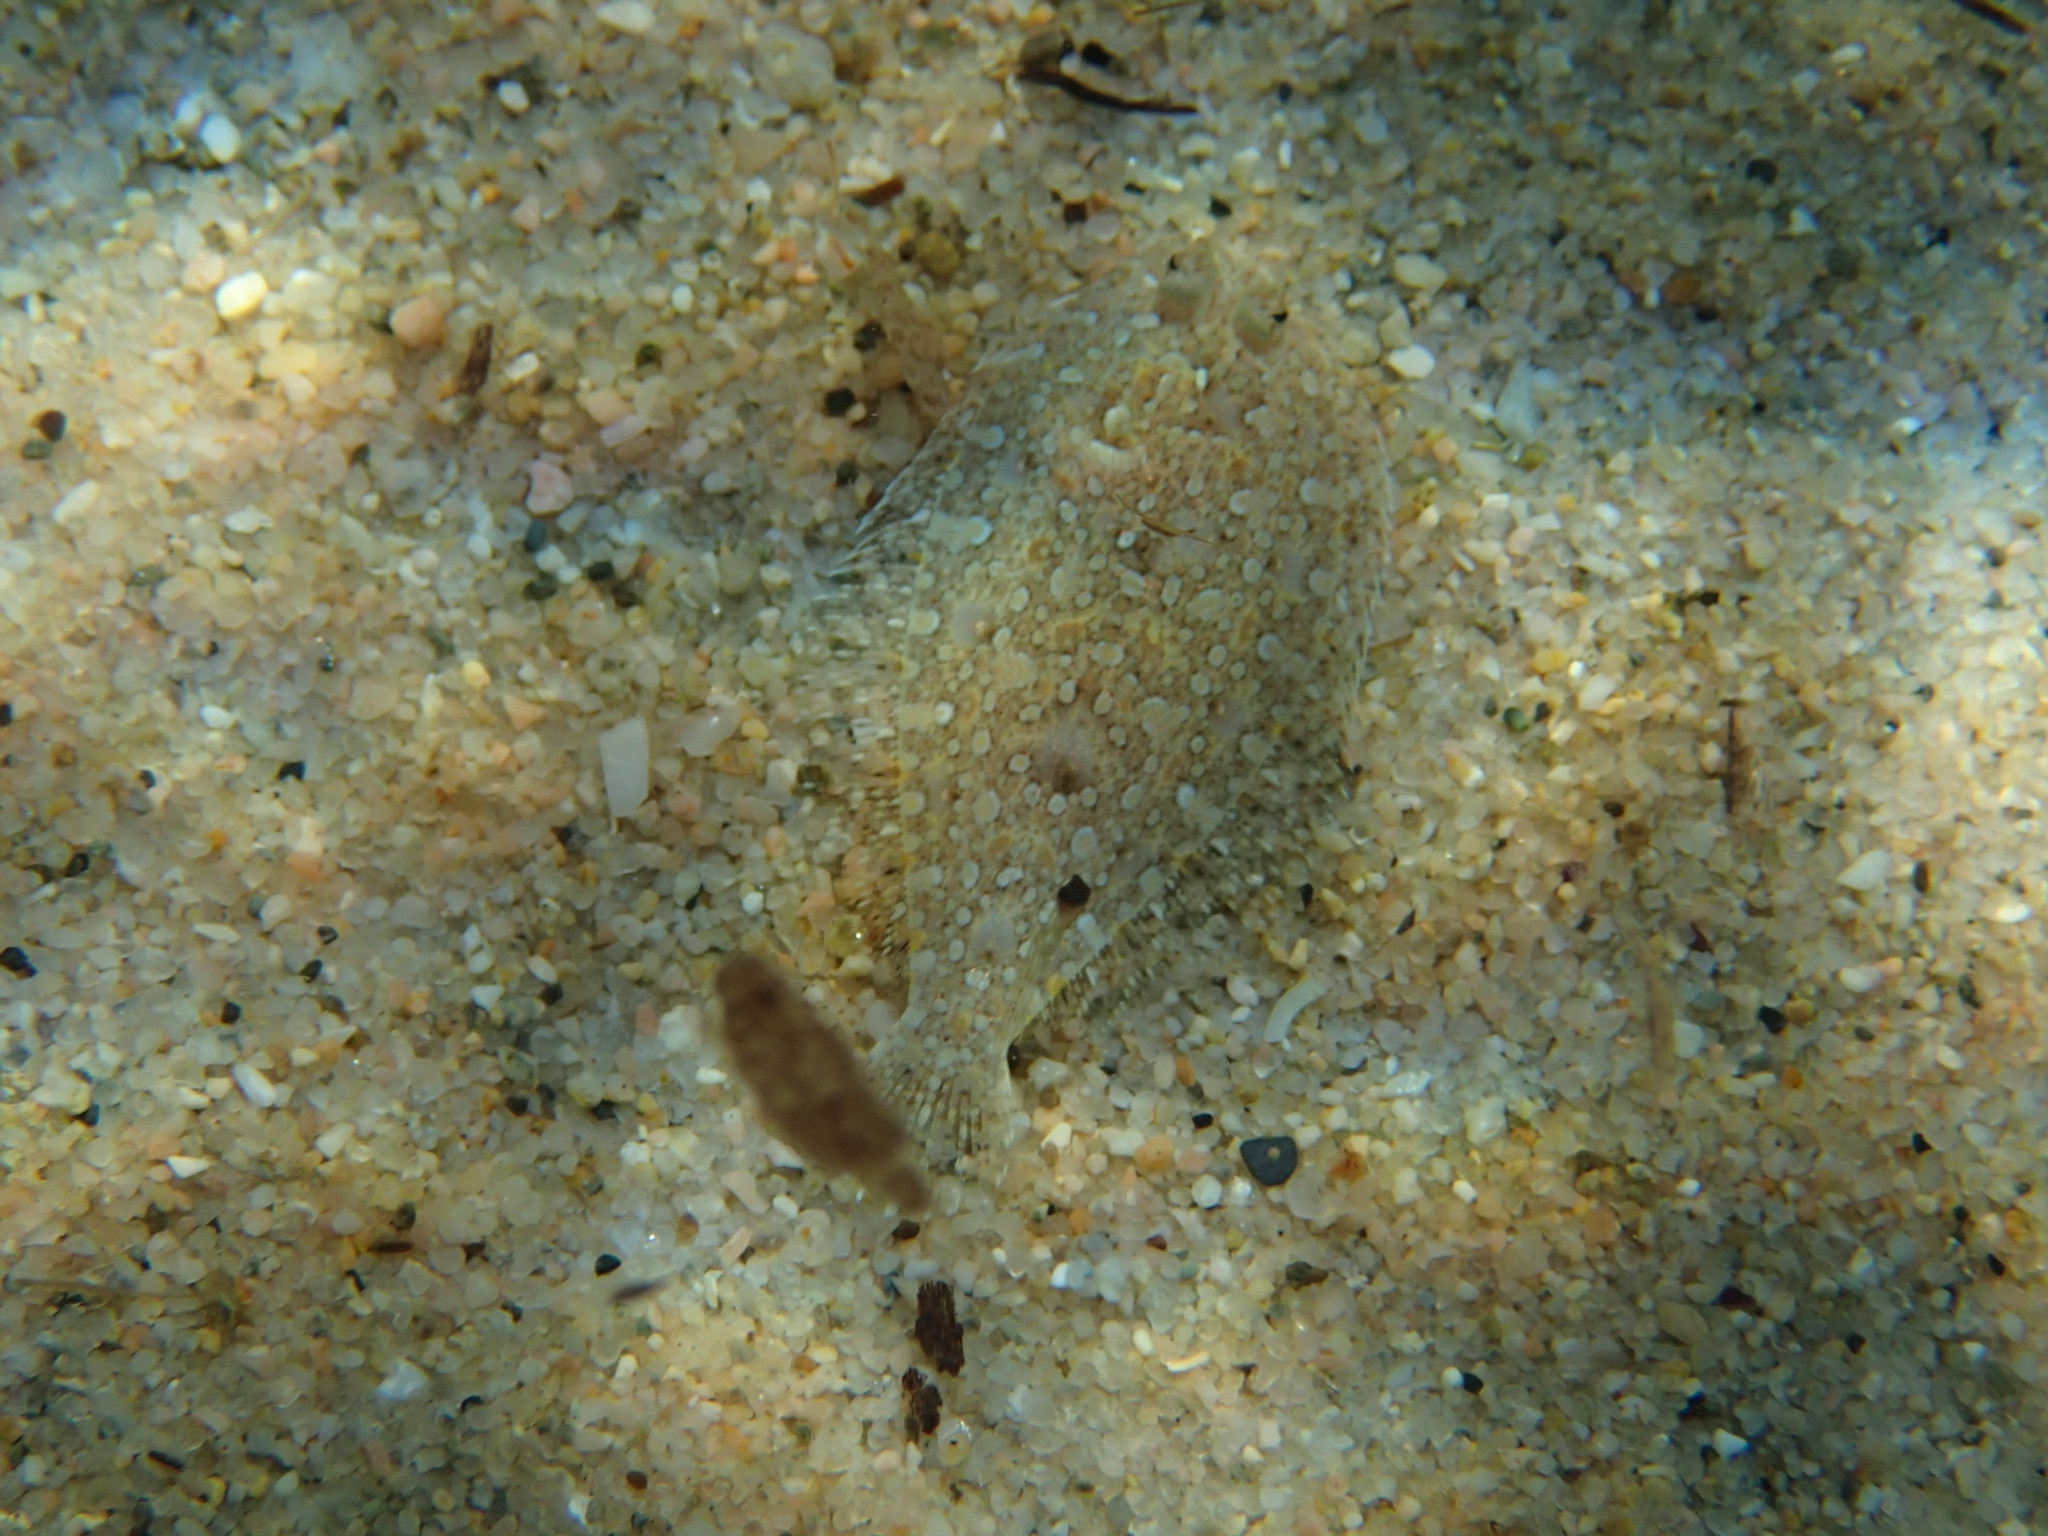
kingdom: Animalia
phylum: Chordata
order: Pleuronectiformes
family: Bothidae
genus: Bothus
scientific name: Bothus podas
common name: Wide-eyed flounder
